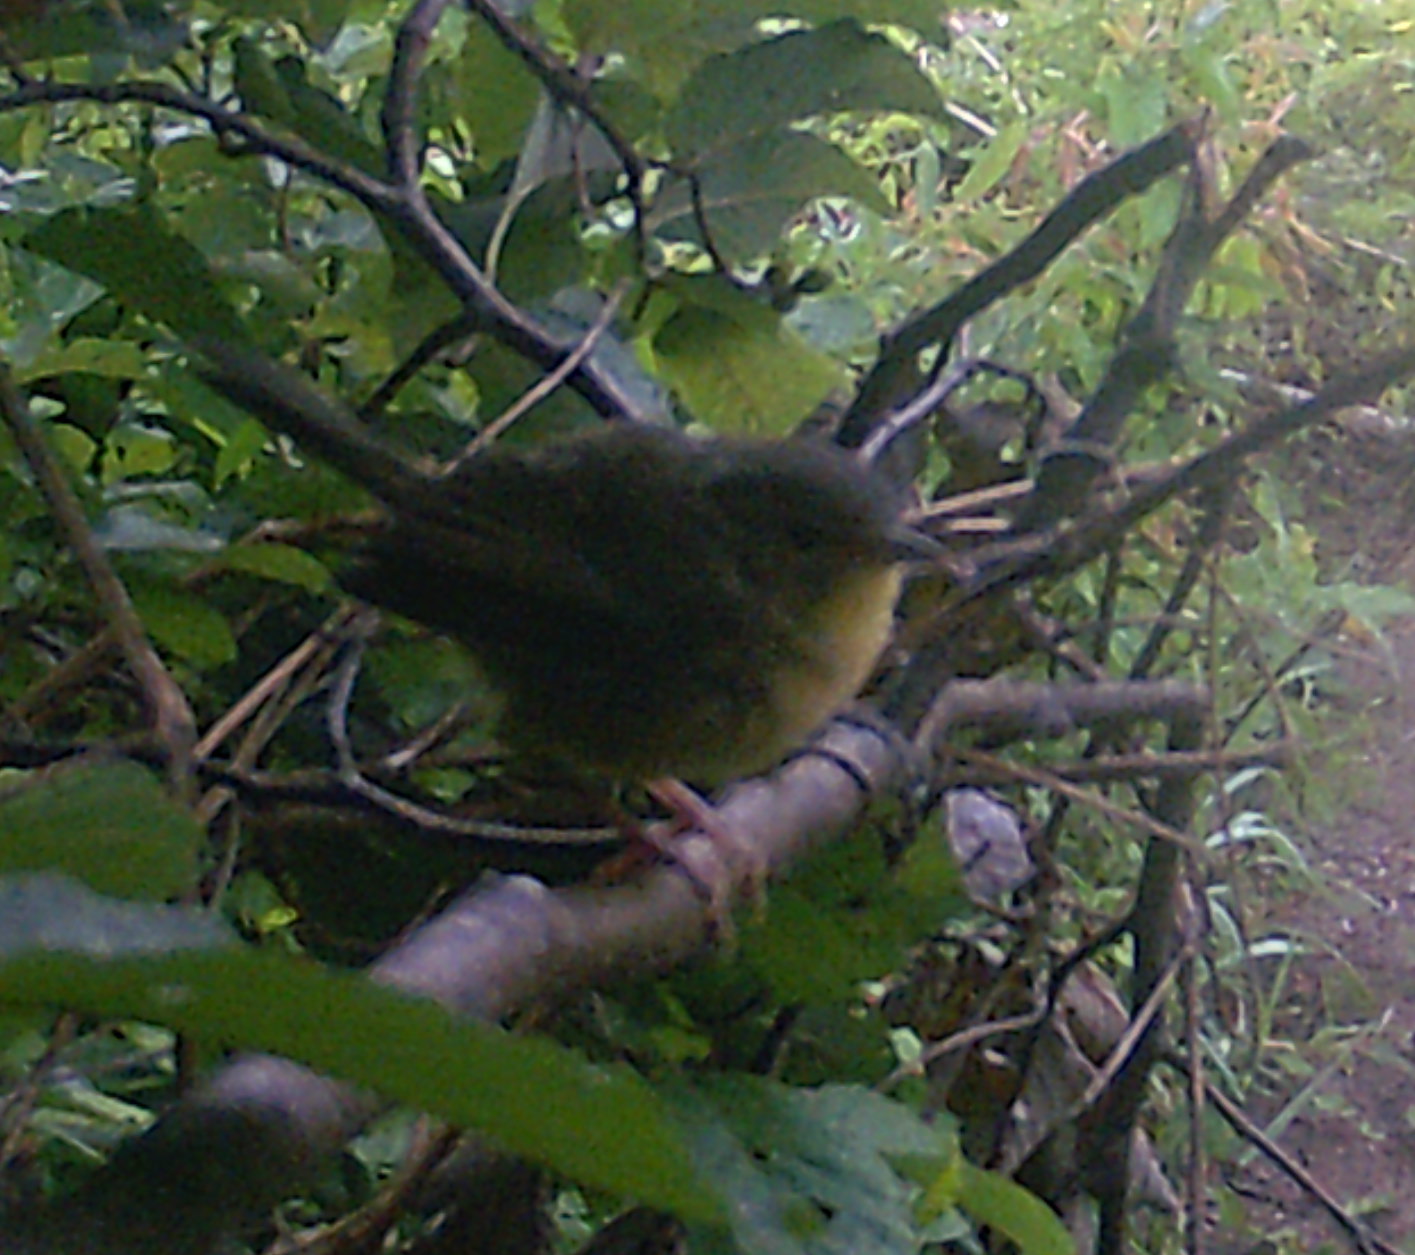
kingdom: Animalia
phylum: Chordata
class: Aves
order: Passeriformes
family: Parulidae
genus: Geothlypis
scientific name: Geothlypis trichas
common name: Common yellowthroat
